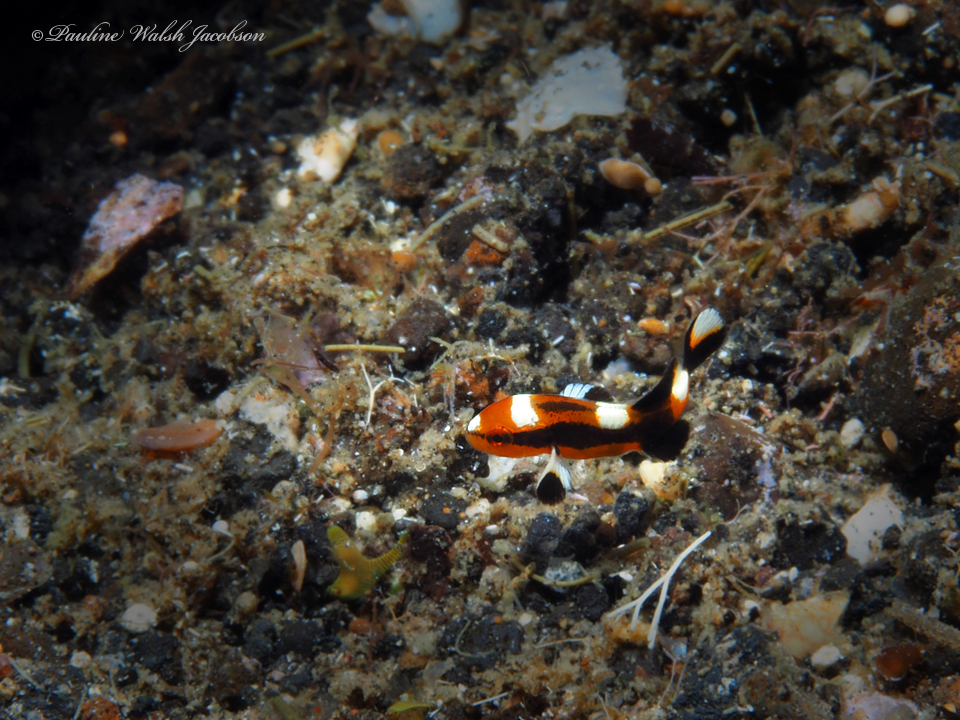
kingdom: Animalia
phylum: Chordata
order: Perciformes
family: Haemulidae
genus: Plectorhinchus
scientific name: Plectorhinchus vittatus
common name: Oriental sweetlips
